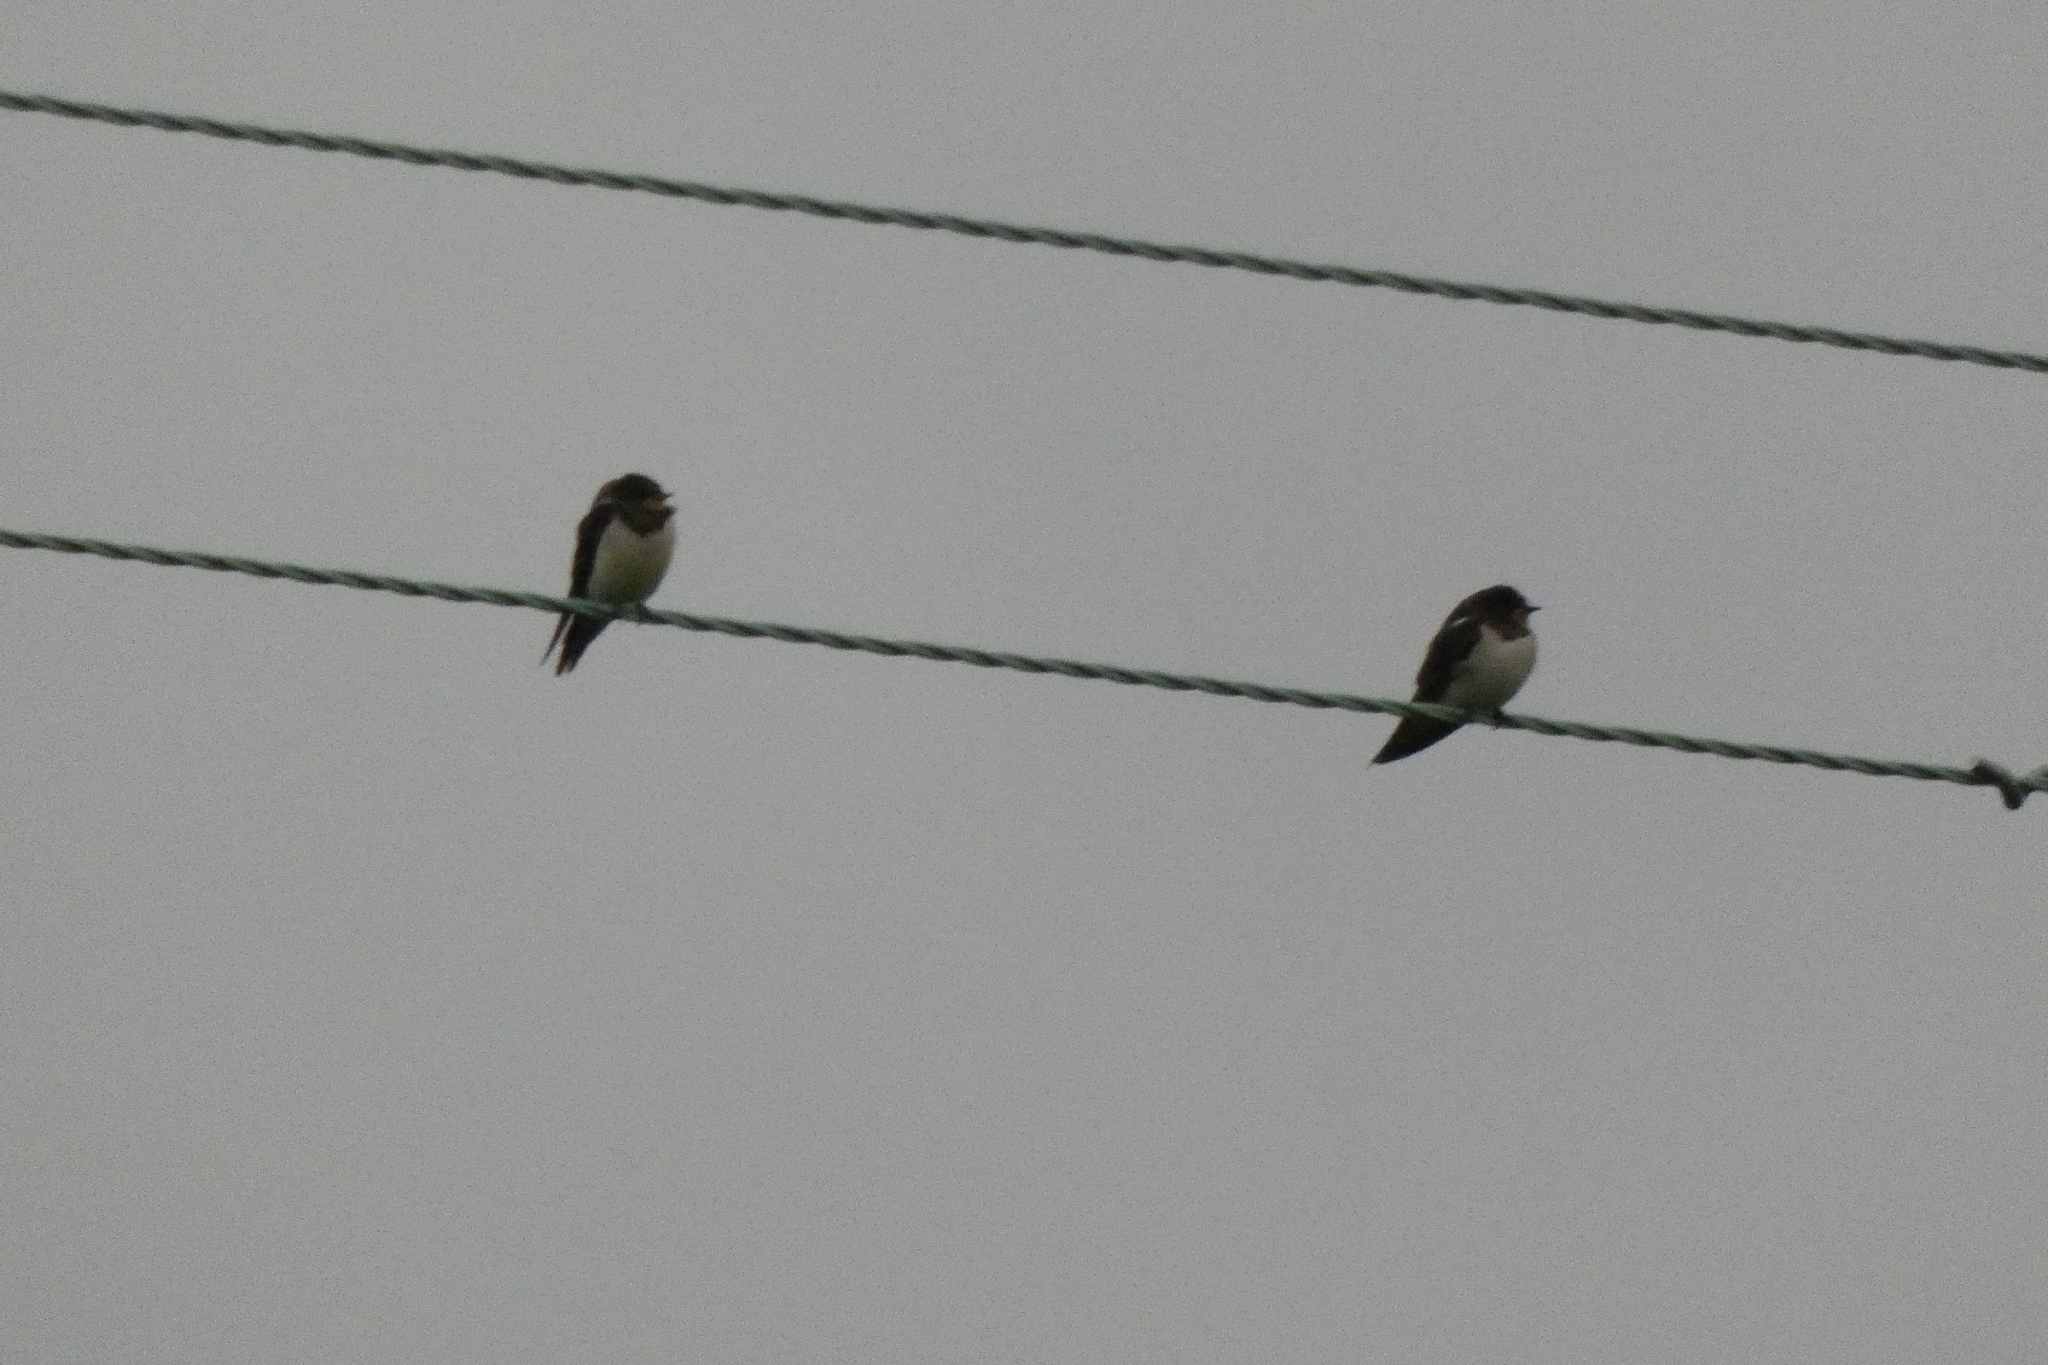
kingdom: Animalia
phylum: Chordata
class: Aves
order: Passeriformes
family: Hirundinidae
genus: Hirundo
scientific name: Hirundo rustica
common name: Barn swallow
